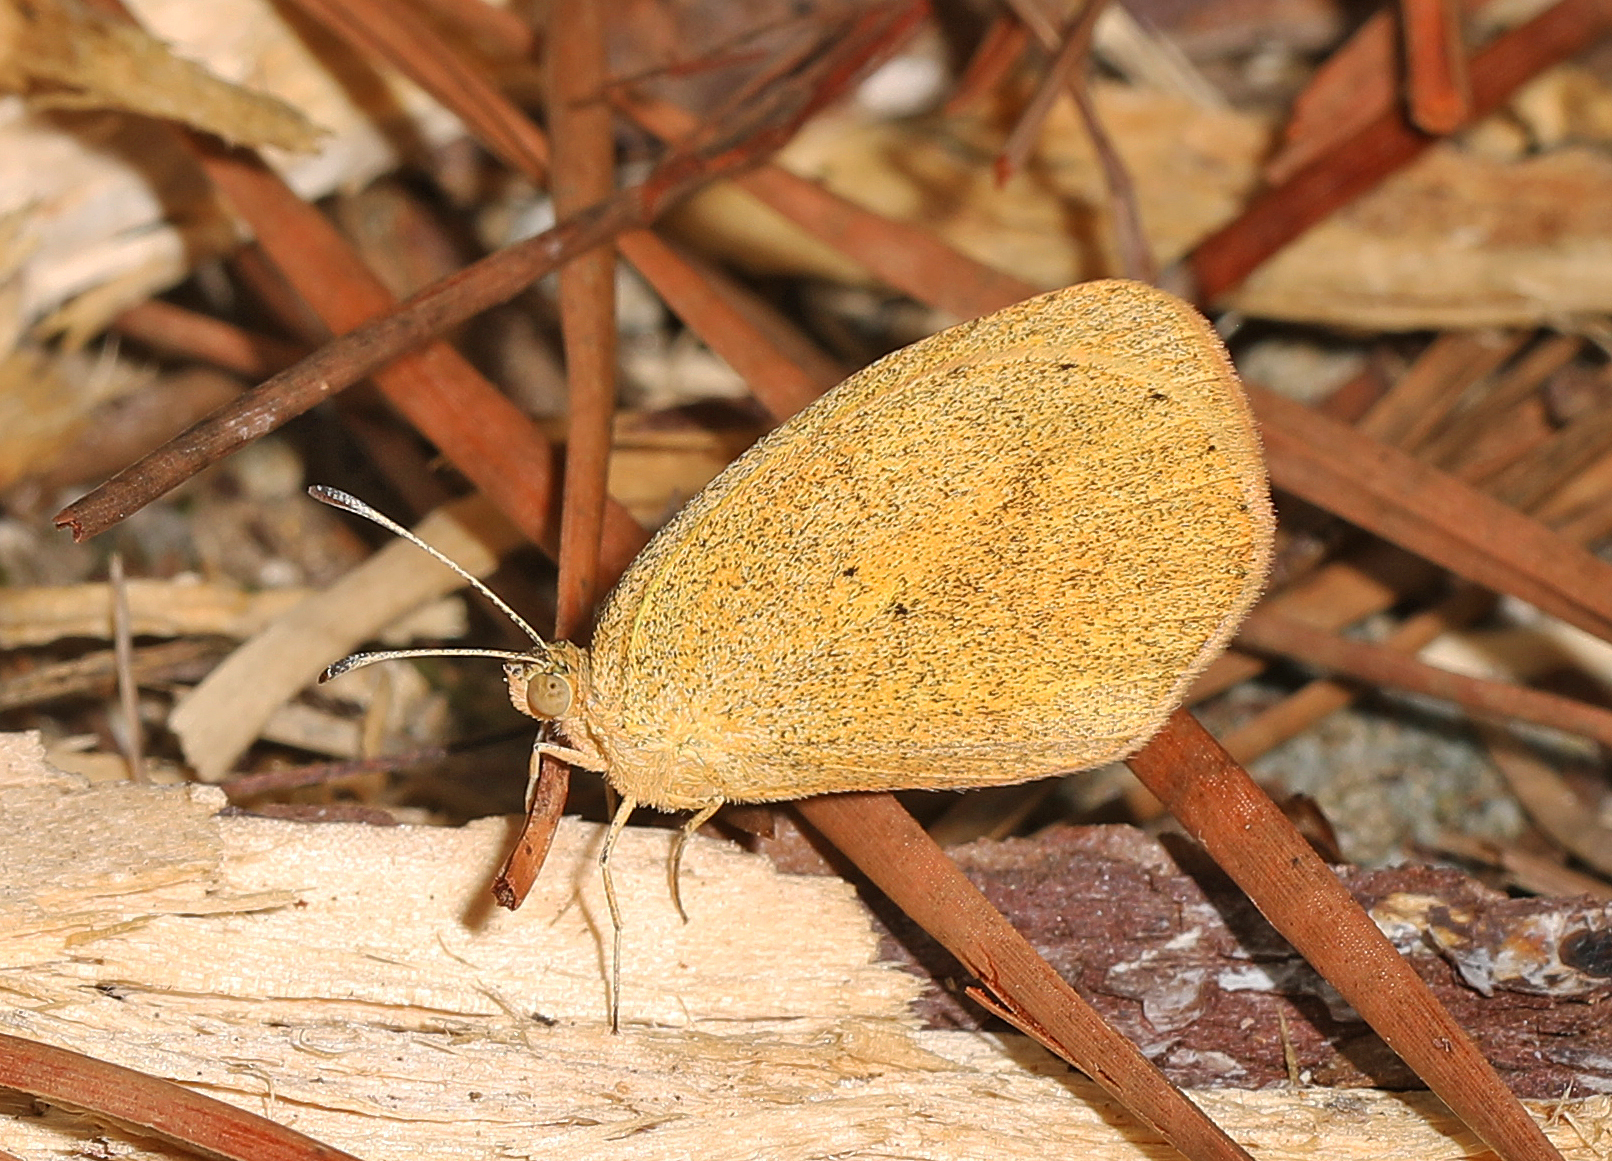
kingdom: Animalia
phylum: Arthropoda
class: Insecta
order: Lepidoptera
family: Pieridae
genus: Eurema
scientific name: Eurema daira
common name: Barred sulphur
